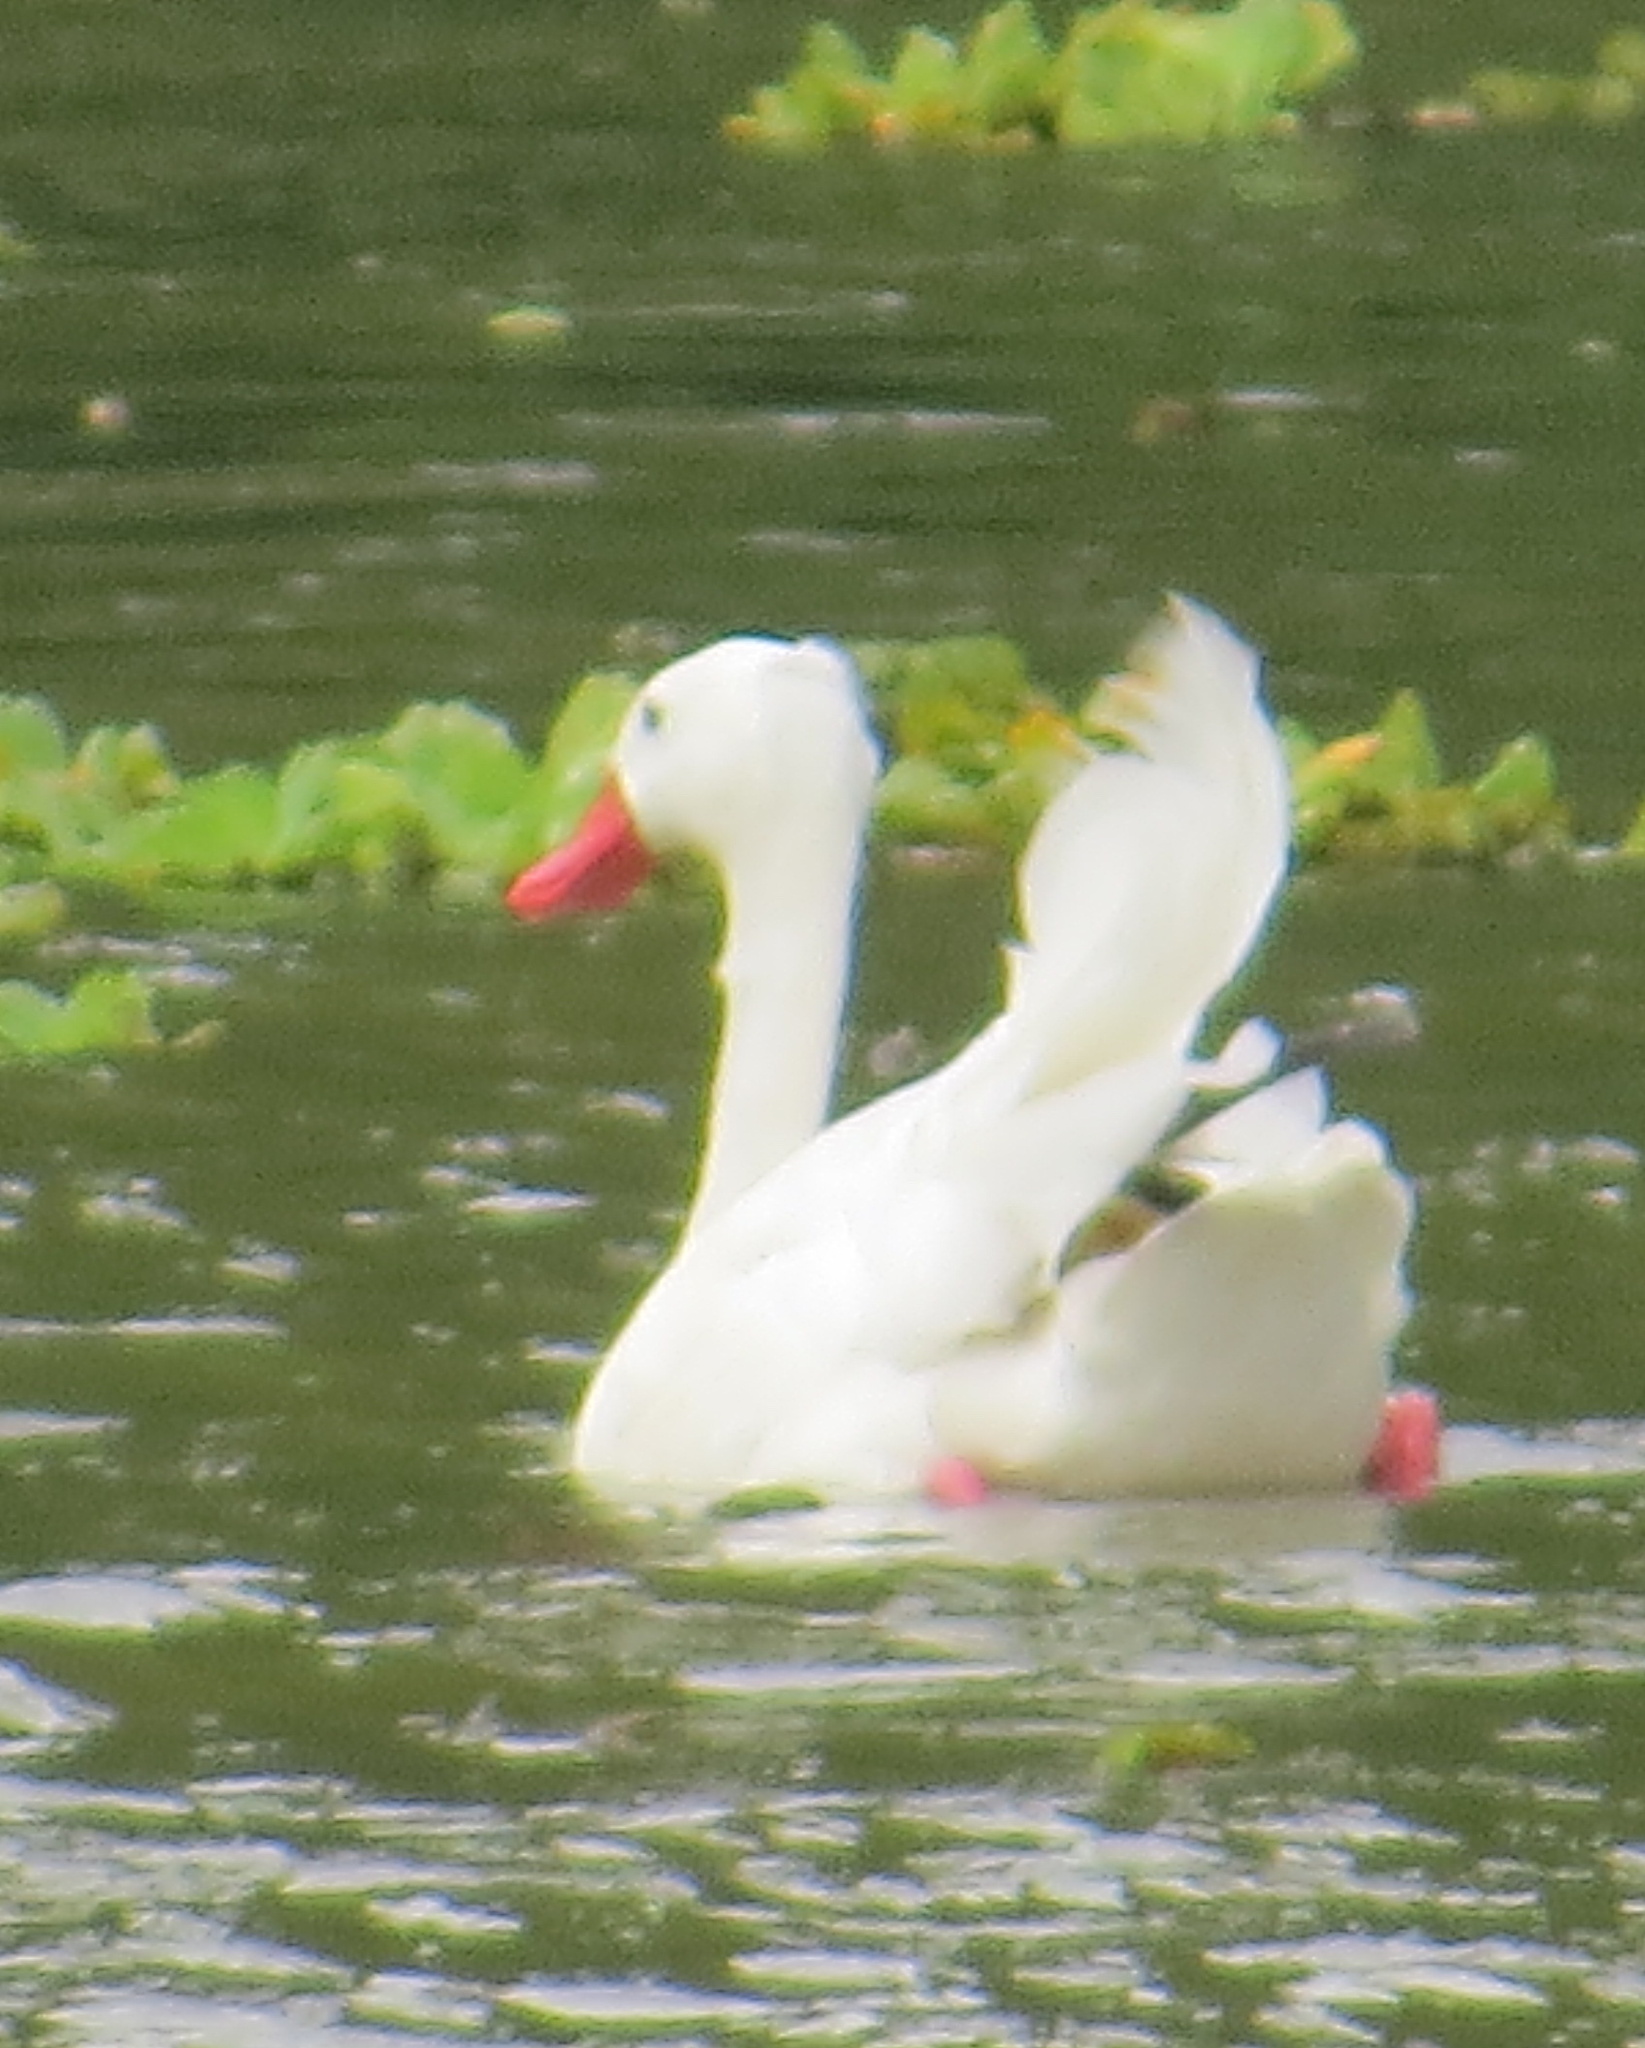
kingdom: Animalia
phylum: Chordata
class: Aves
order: Anseriformes
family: Anatidae
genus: Coscoroba
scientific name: Coscoroba coscoroba
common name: Coscoroba swan
